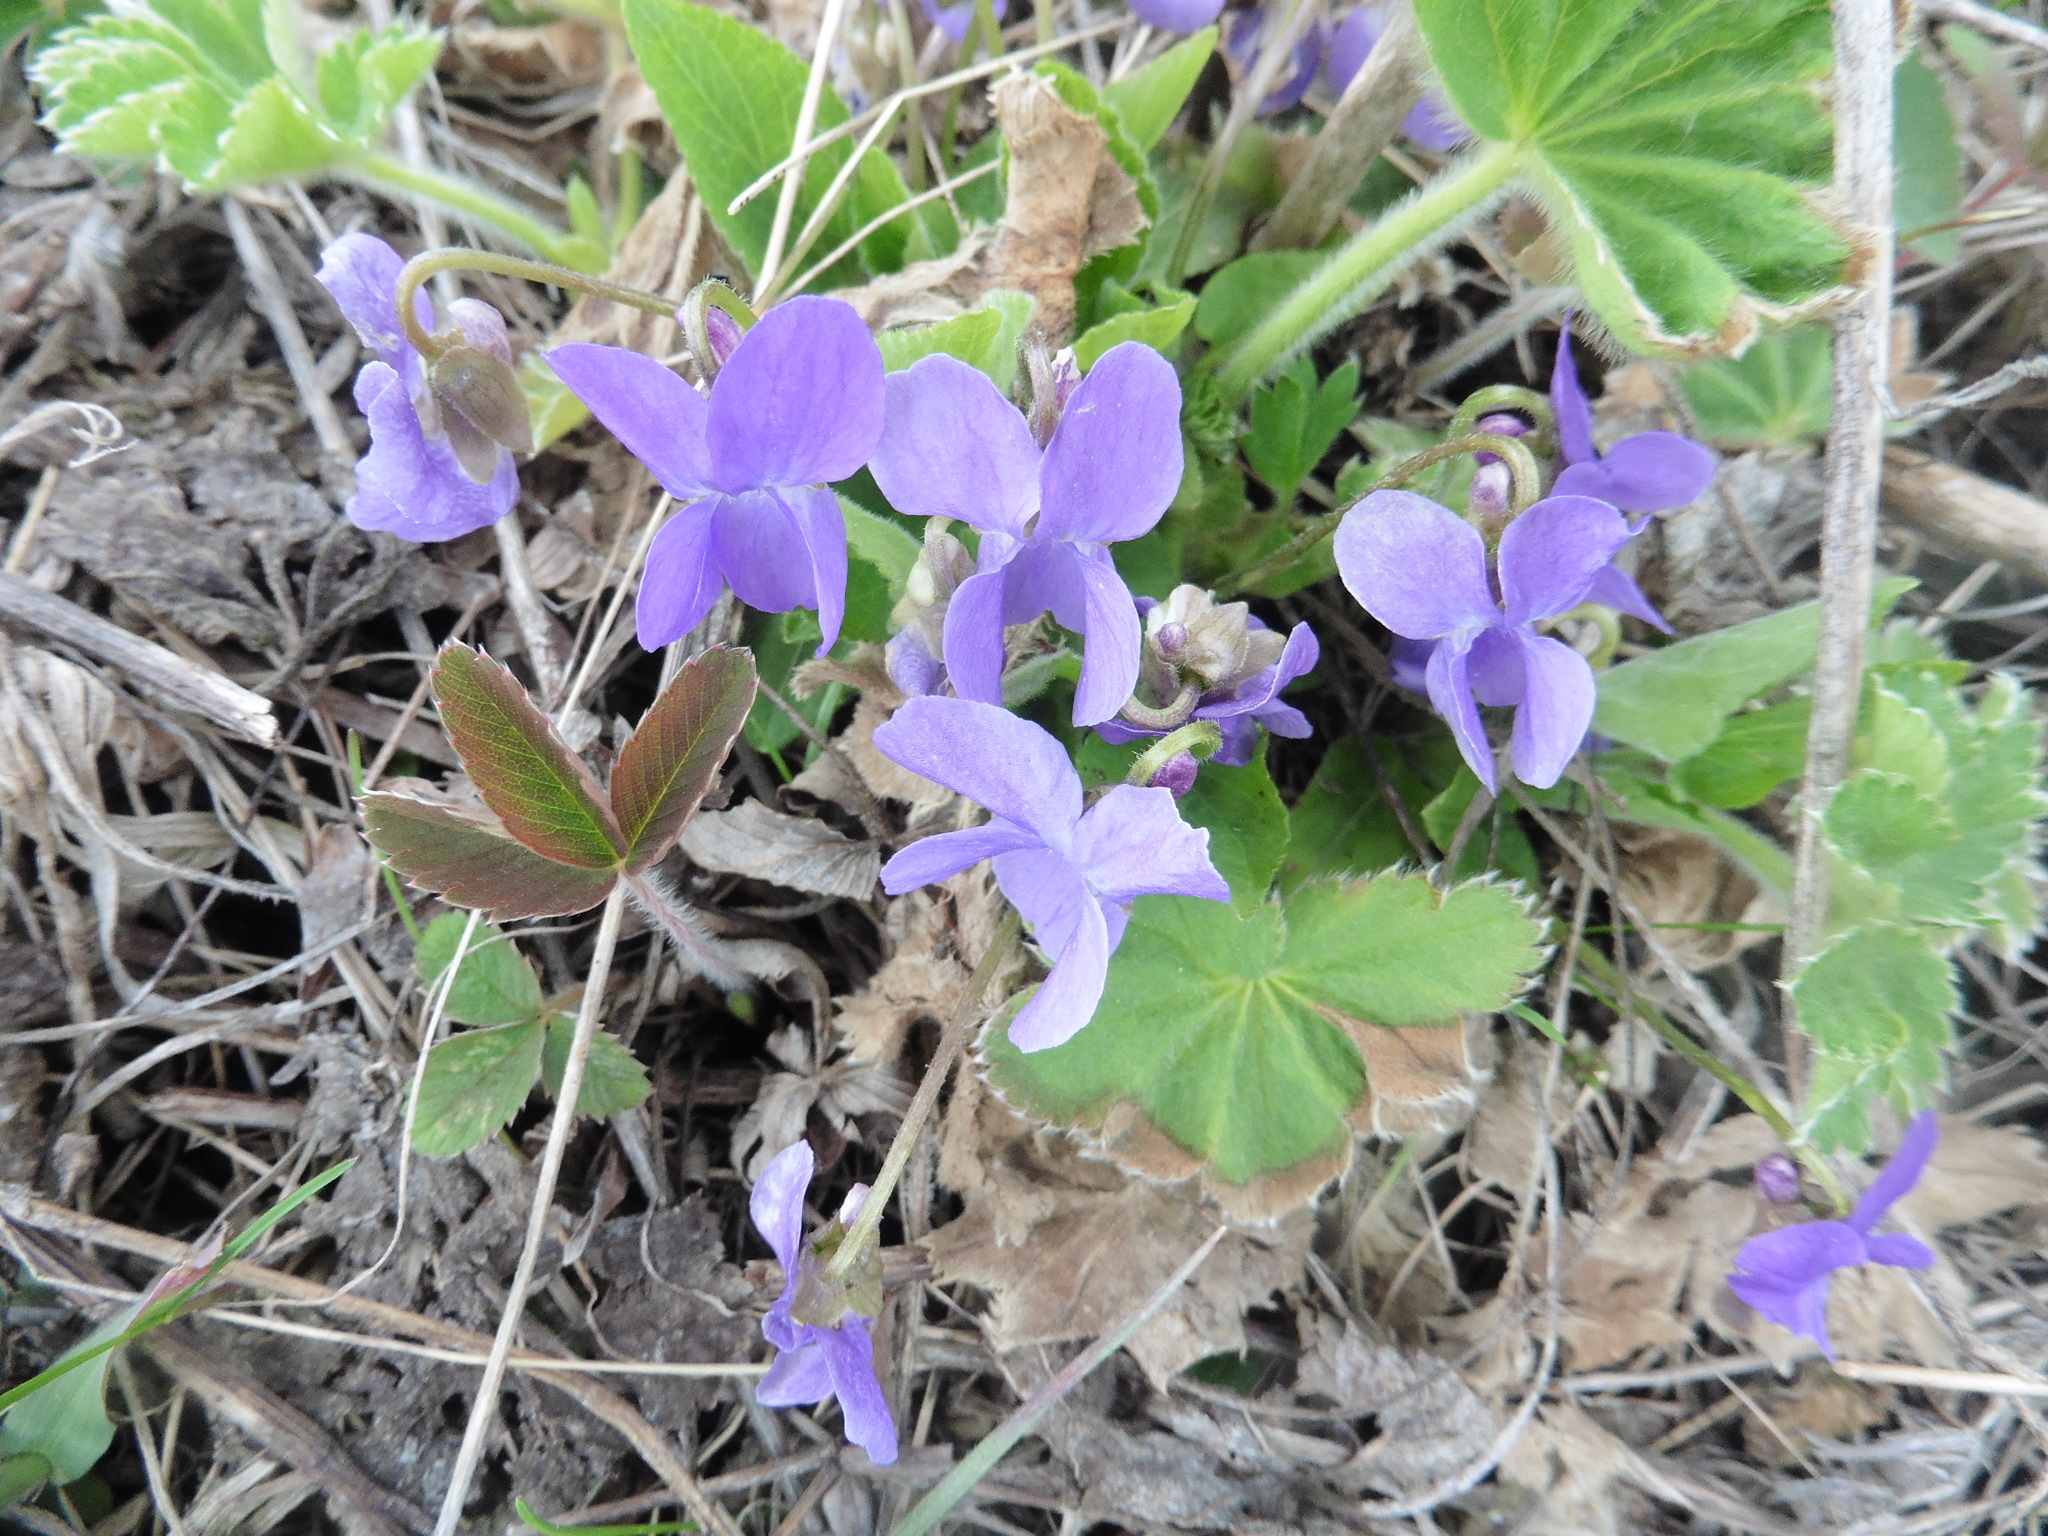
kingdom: Plantae
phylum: Tracheophyta
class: Magnoliopsida
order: Malpighiales
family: Violaceae
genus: Viola
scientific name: Viola hirta
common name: Hairy violet
